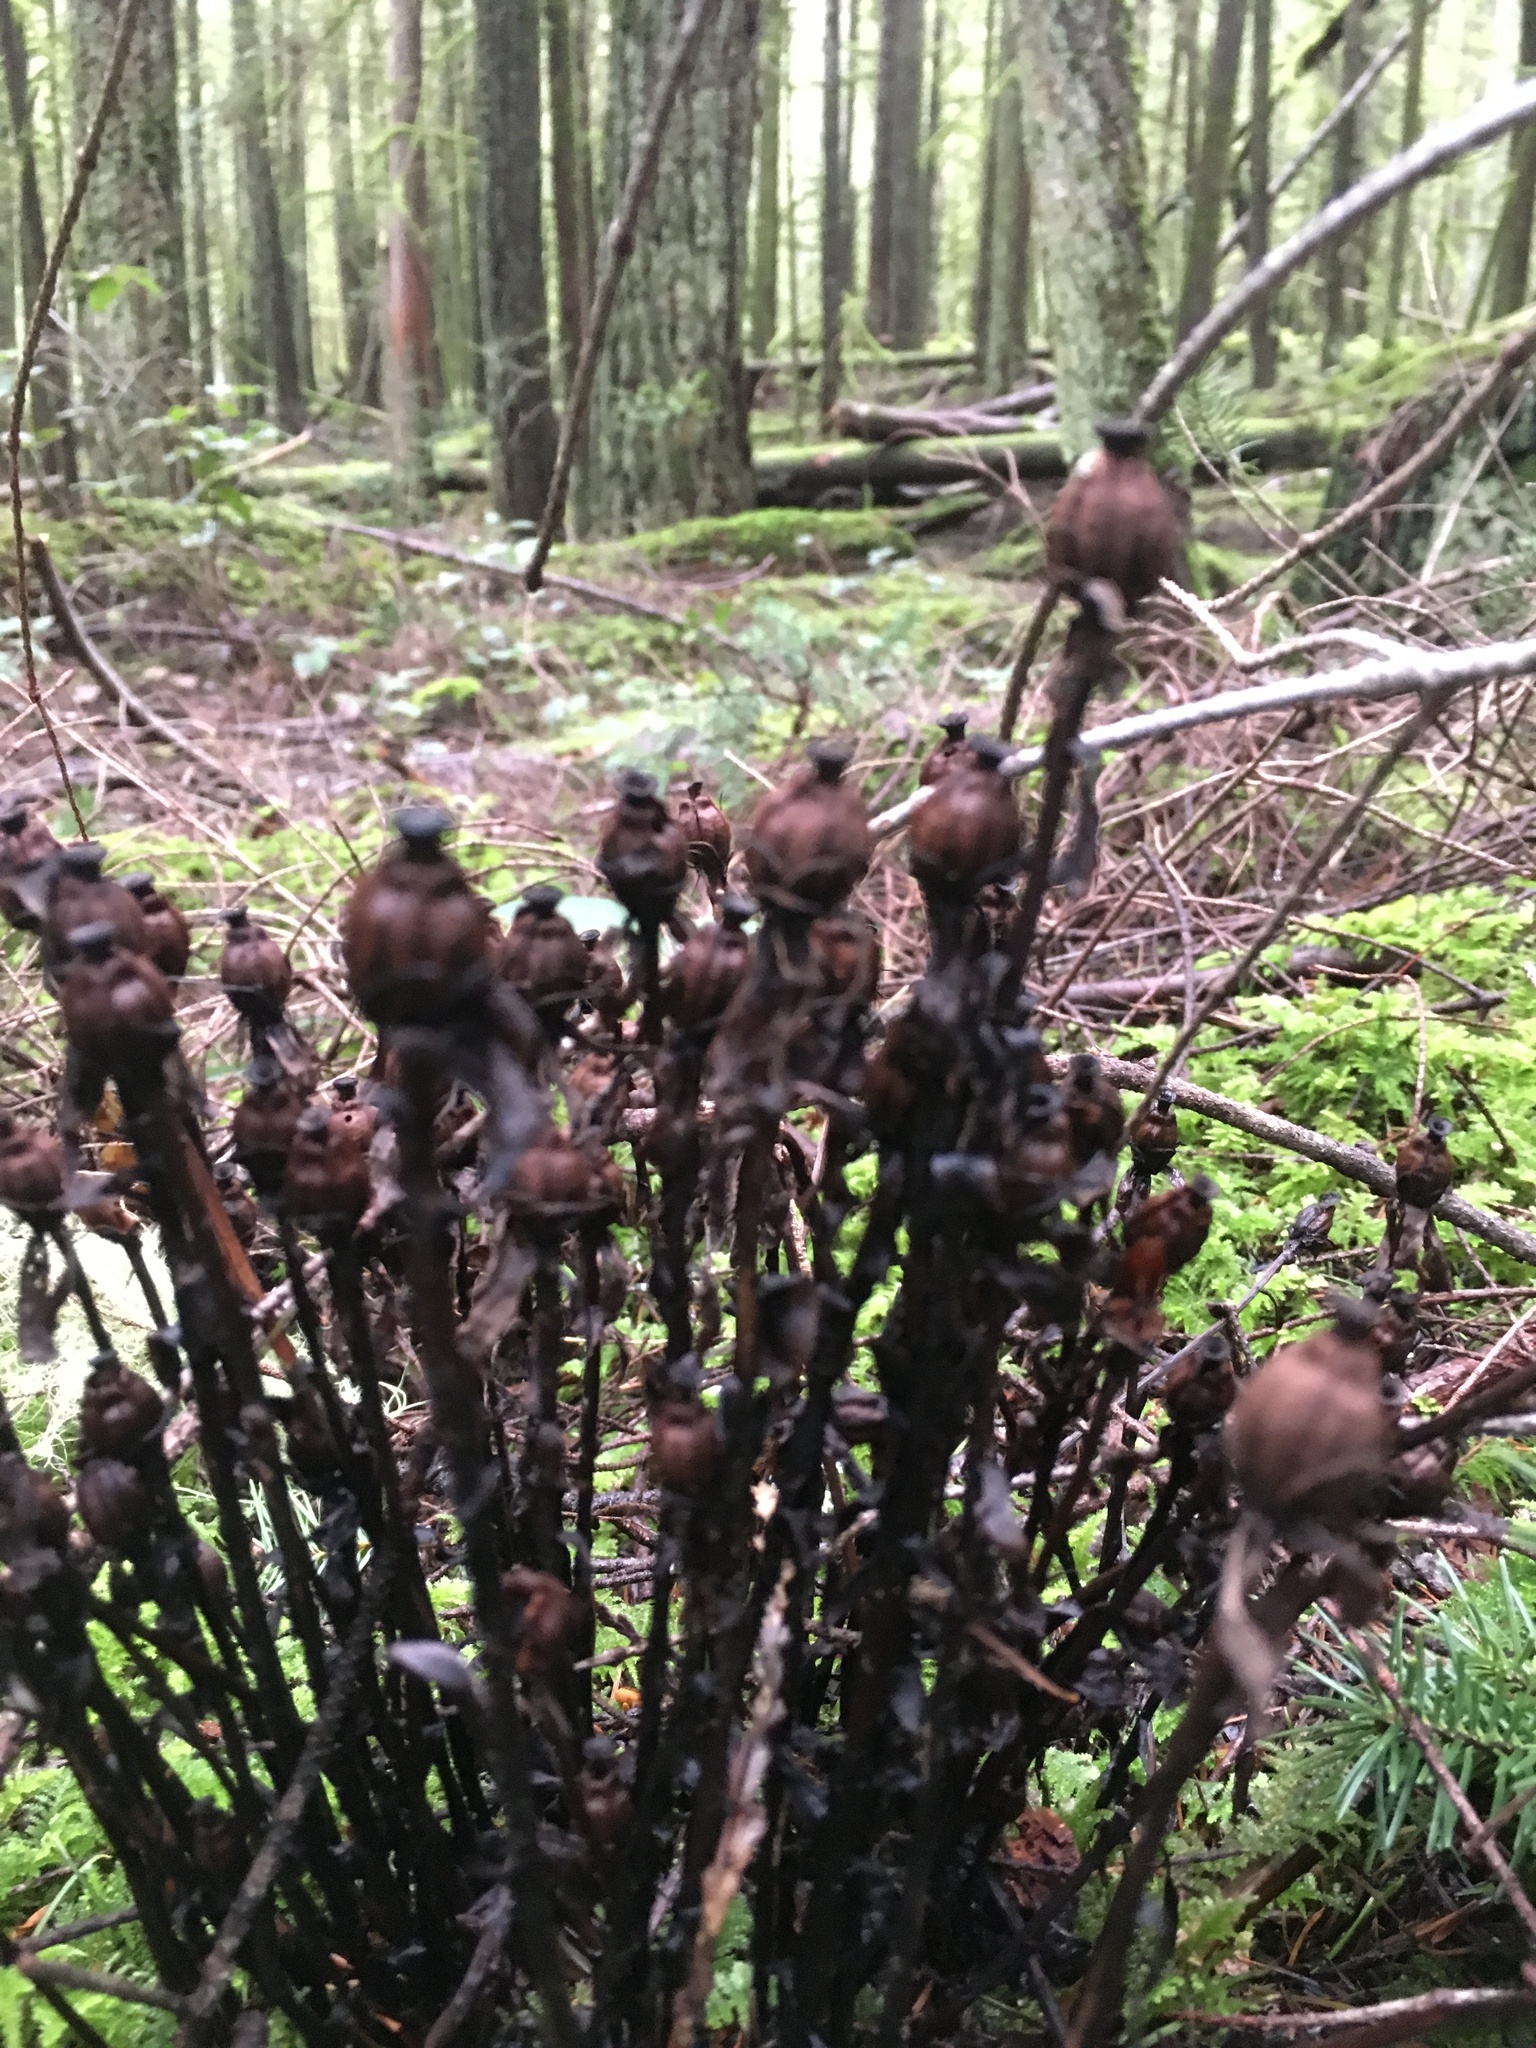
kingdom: Plantae
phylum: Tracheophyta
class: Magnoliopsida
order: Ericales
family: Ericaceae
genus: Monotropa
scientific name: Monotropa uniflora
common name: Convulsion root
